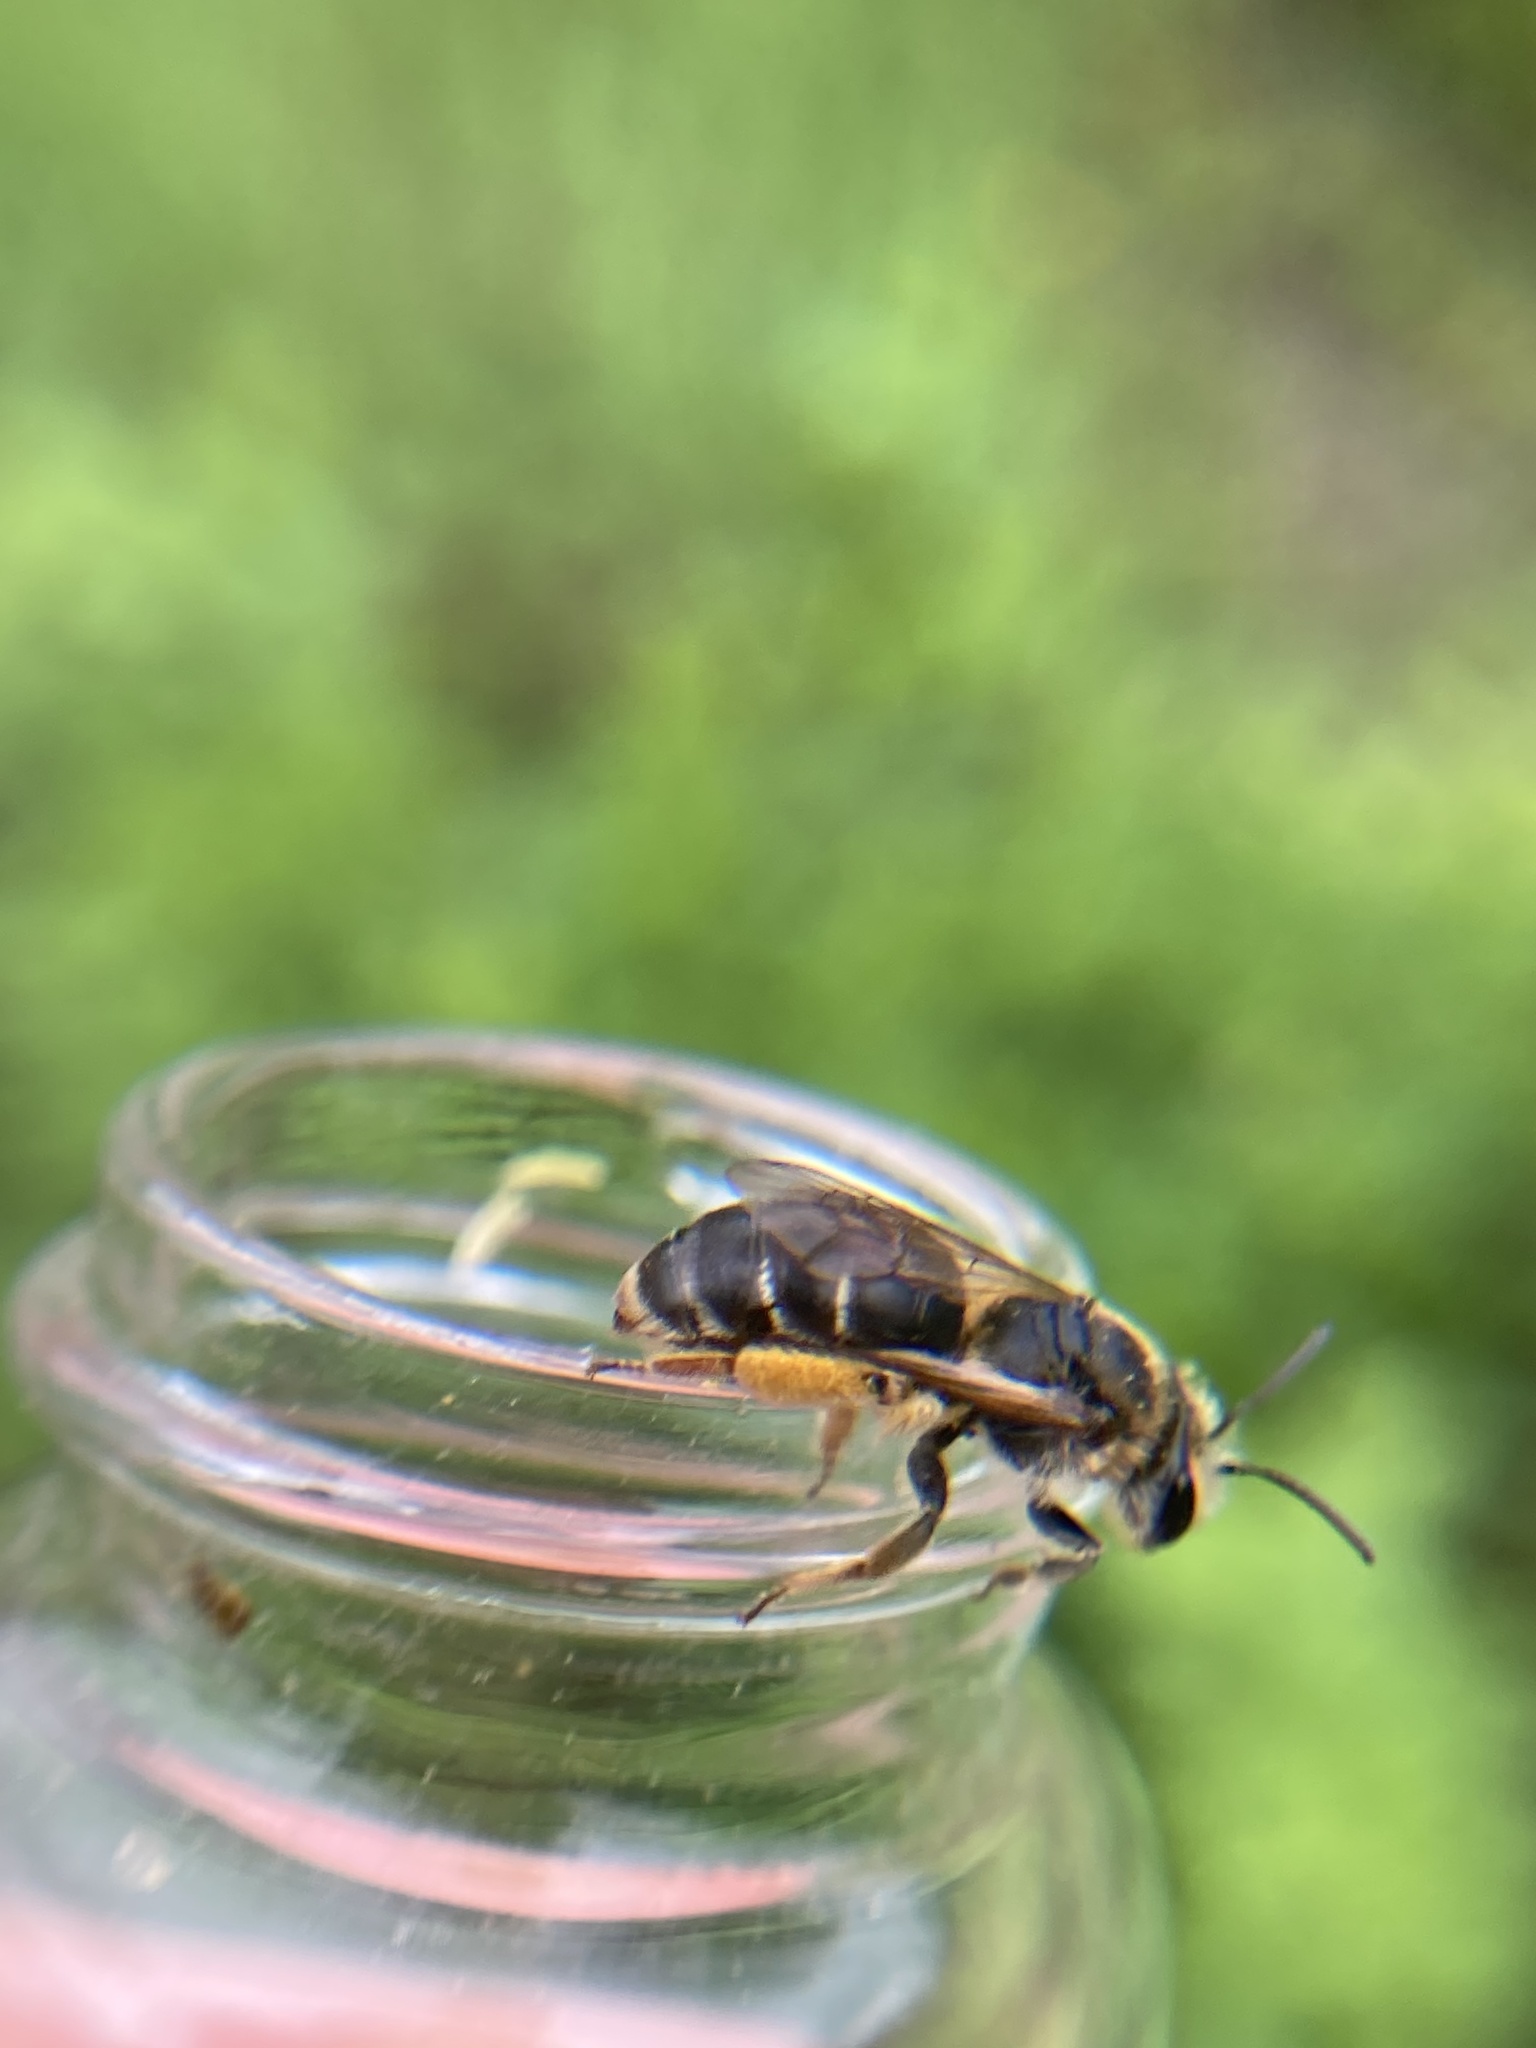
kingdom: Animalia
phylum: Arthropoda
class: Insecta
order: Hymenoptera
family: Andrenidae
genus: Andrena
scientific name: Andrena wilkella
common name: Wilke's mining bee
